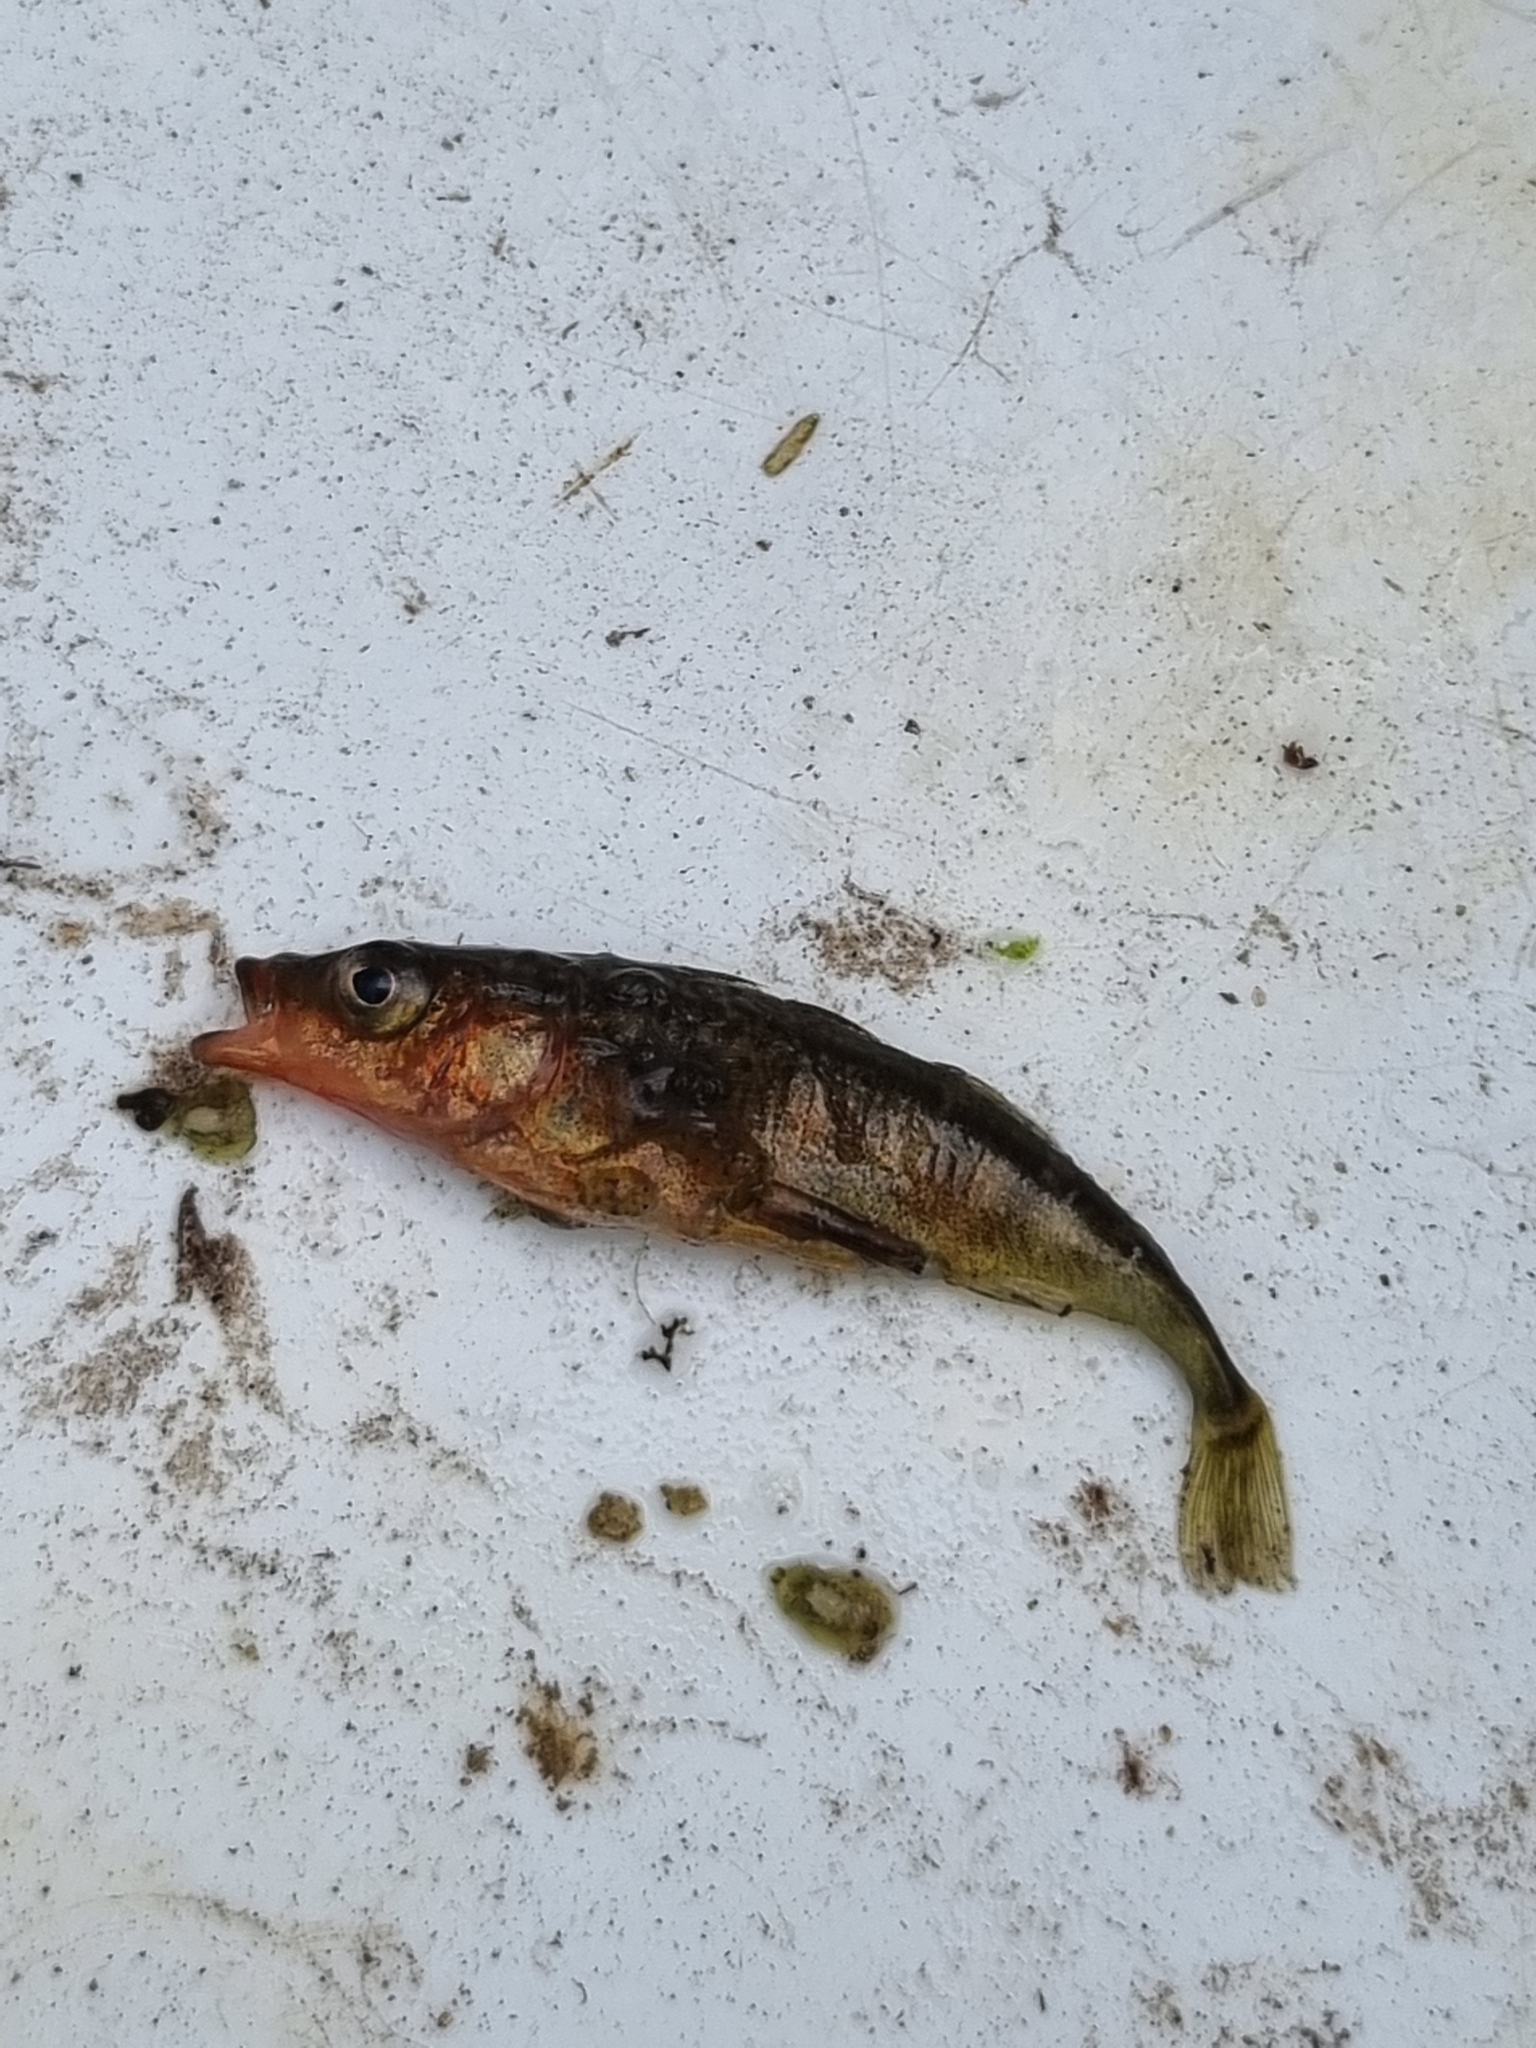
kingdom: Animalia
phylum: Chordata
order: Gasterosteiformes
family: Gasterosteidae
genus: Gasterosteus
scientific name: Gasterosteus aculeatus
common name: Three-spined stickleback
